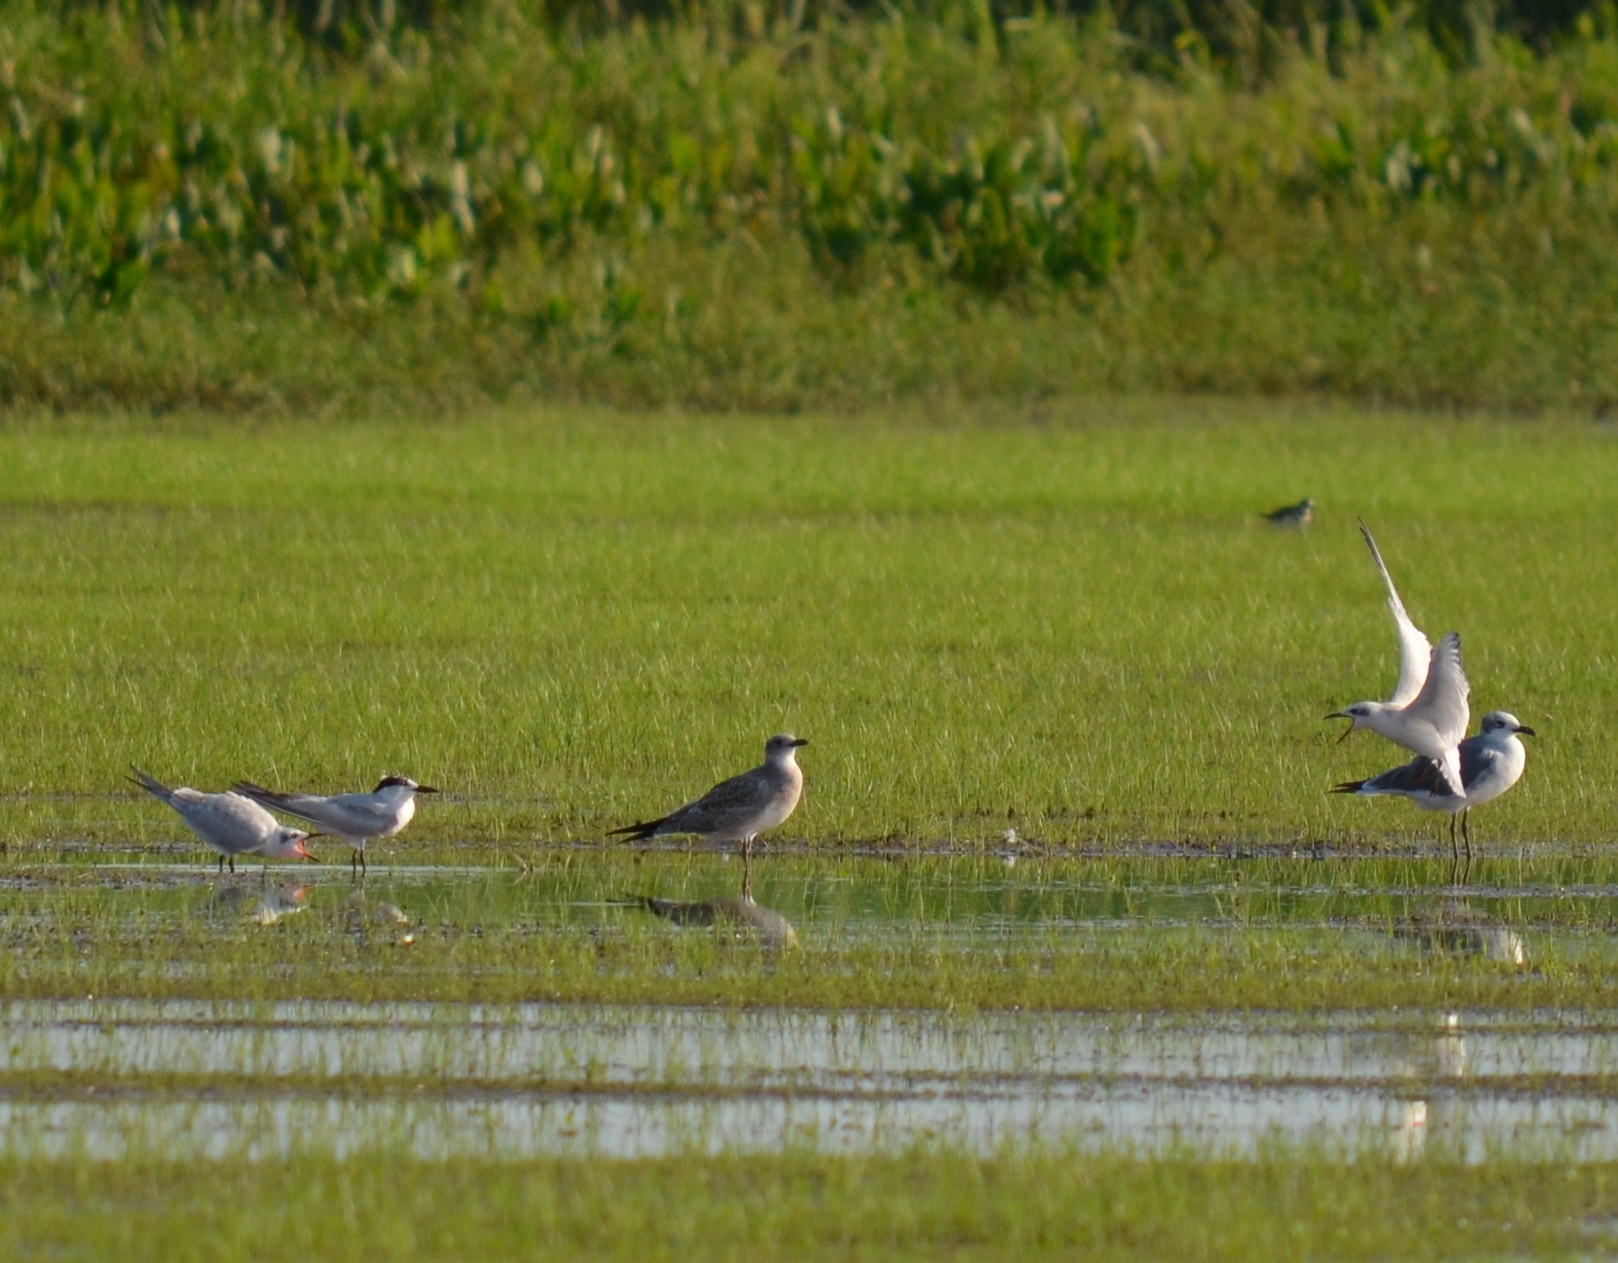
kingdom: Animalia
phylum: Chordata
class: Aves
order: Charadriiformes
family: Laridae
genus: Gelochelidon
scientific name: Gelochelidon nilotica
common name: Gull-billed tern
